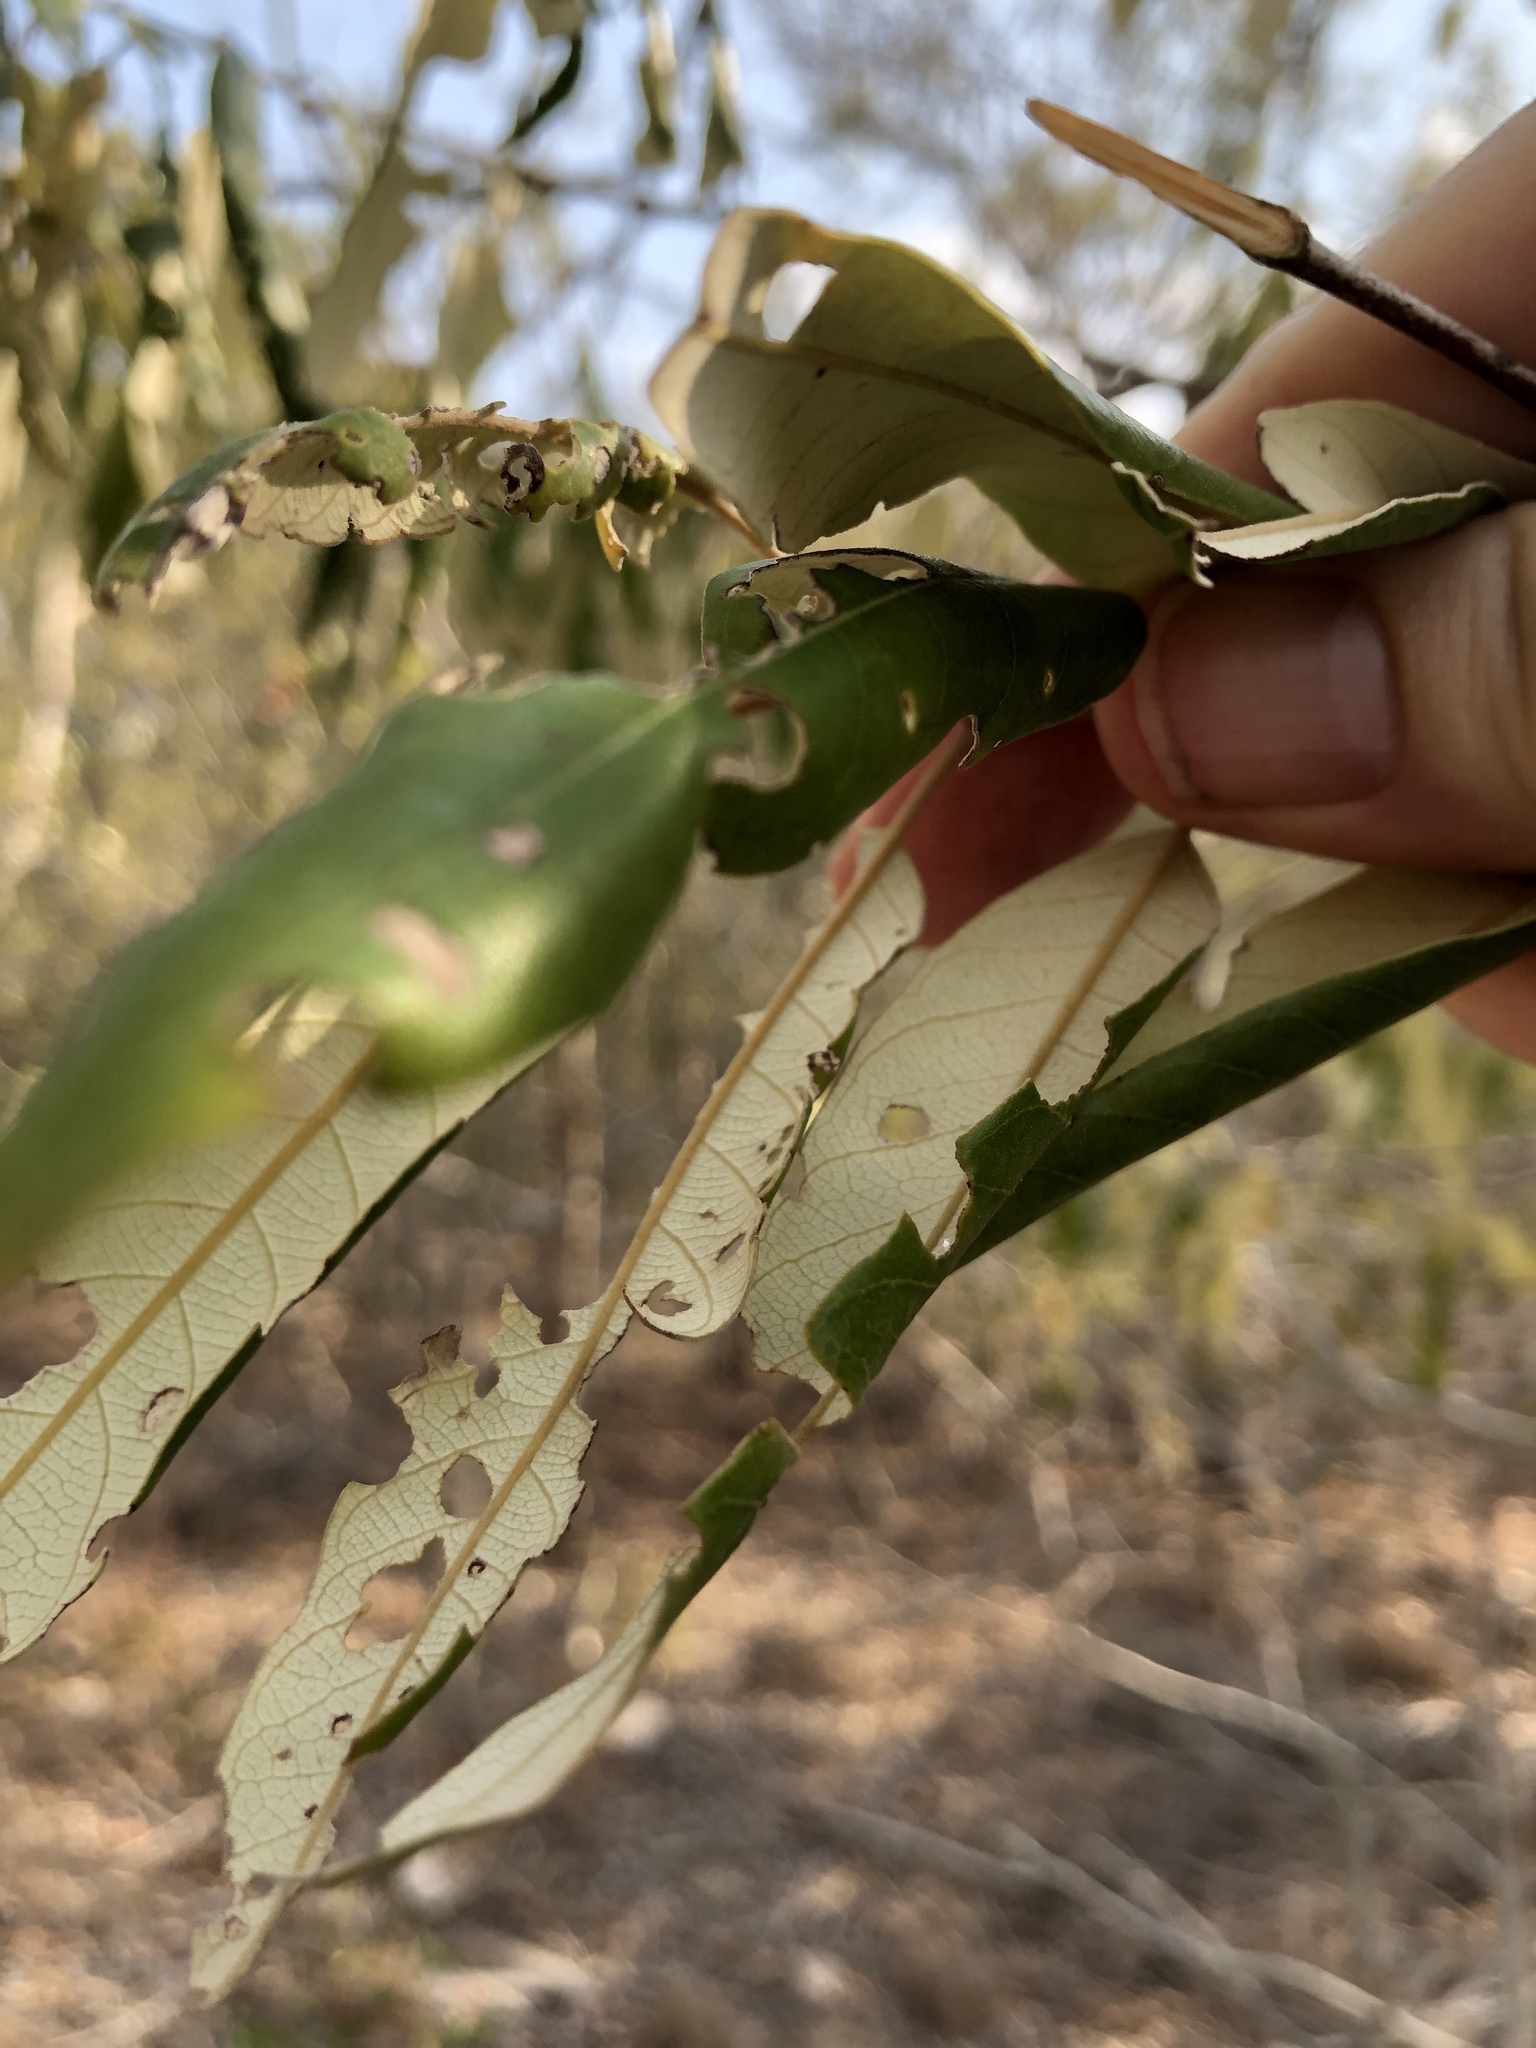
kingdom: Plantae
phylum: Tracheophyta
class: Magnoliopsida
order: Rosales
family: Rhamnaceae
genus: Alphitonia
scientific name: Alphitonia excelsa
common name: Red ash
